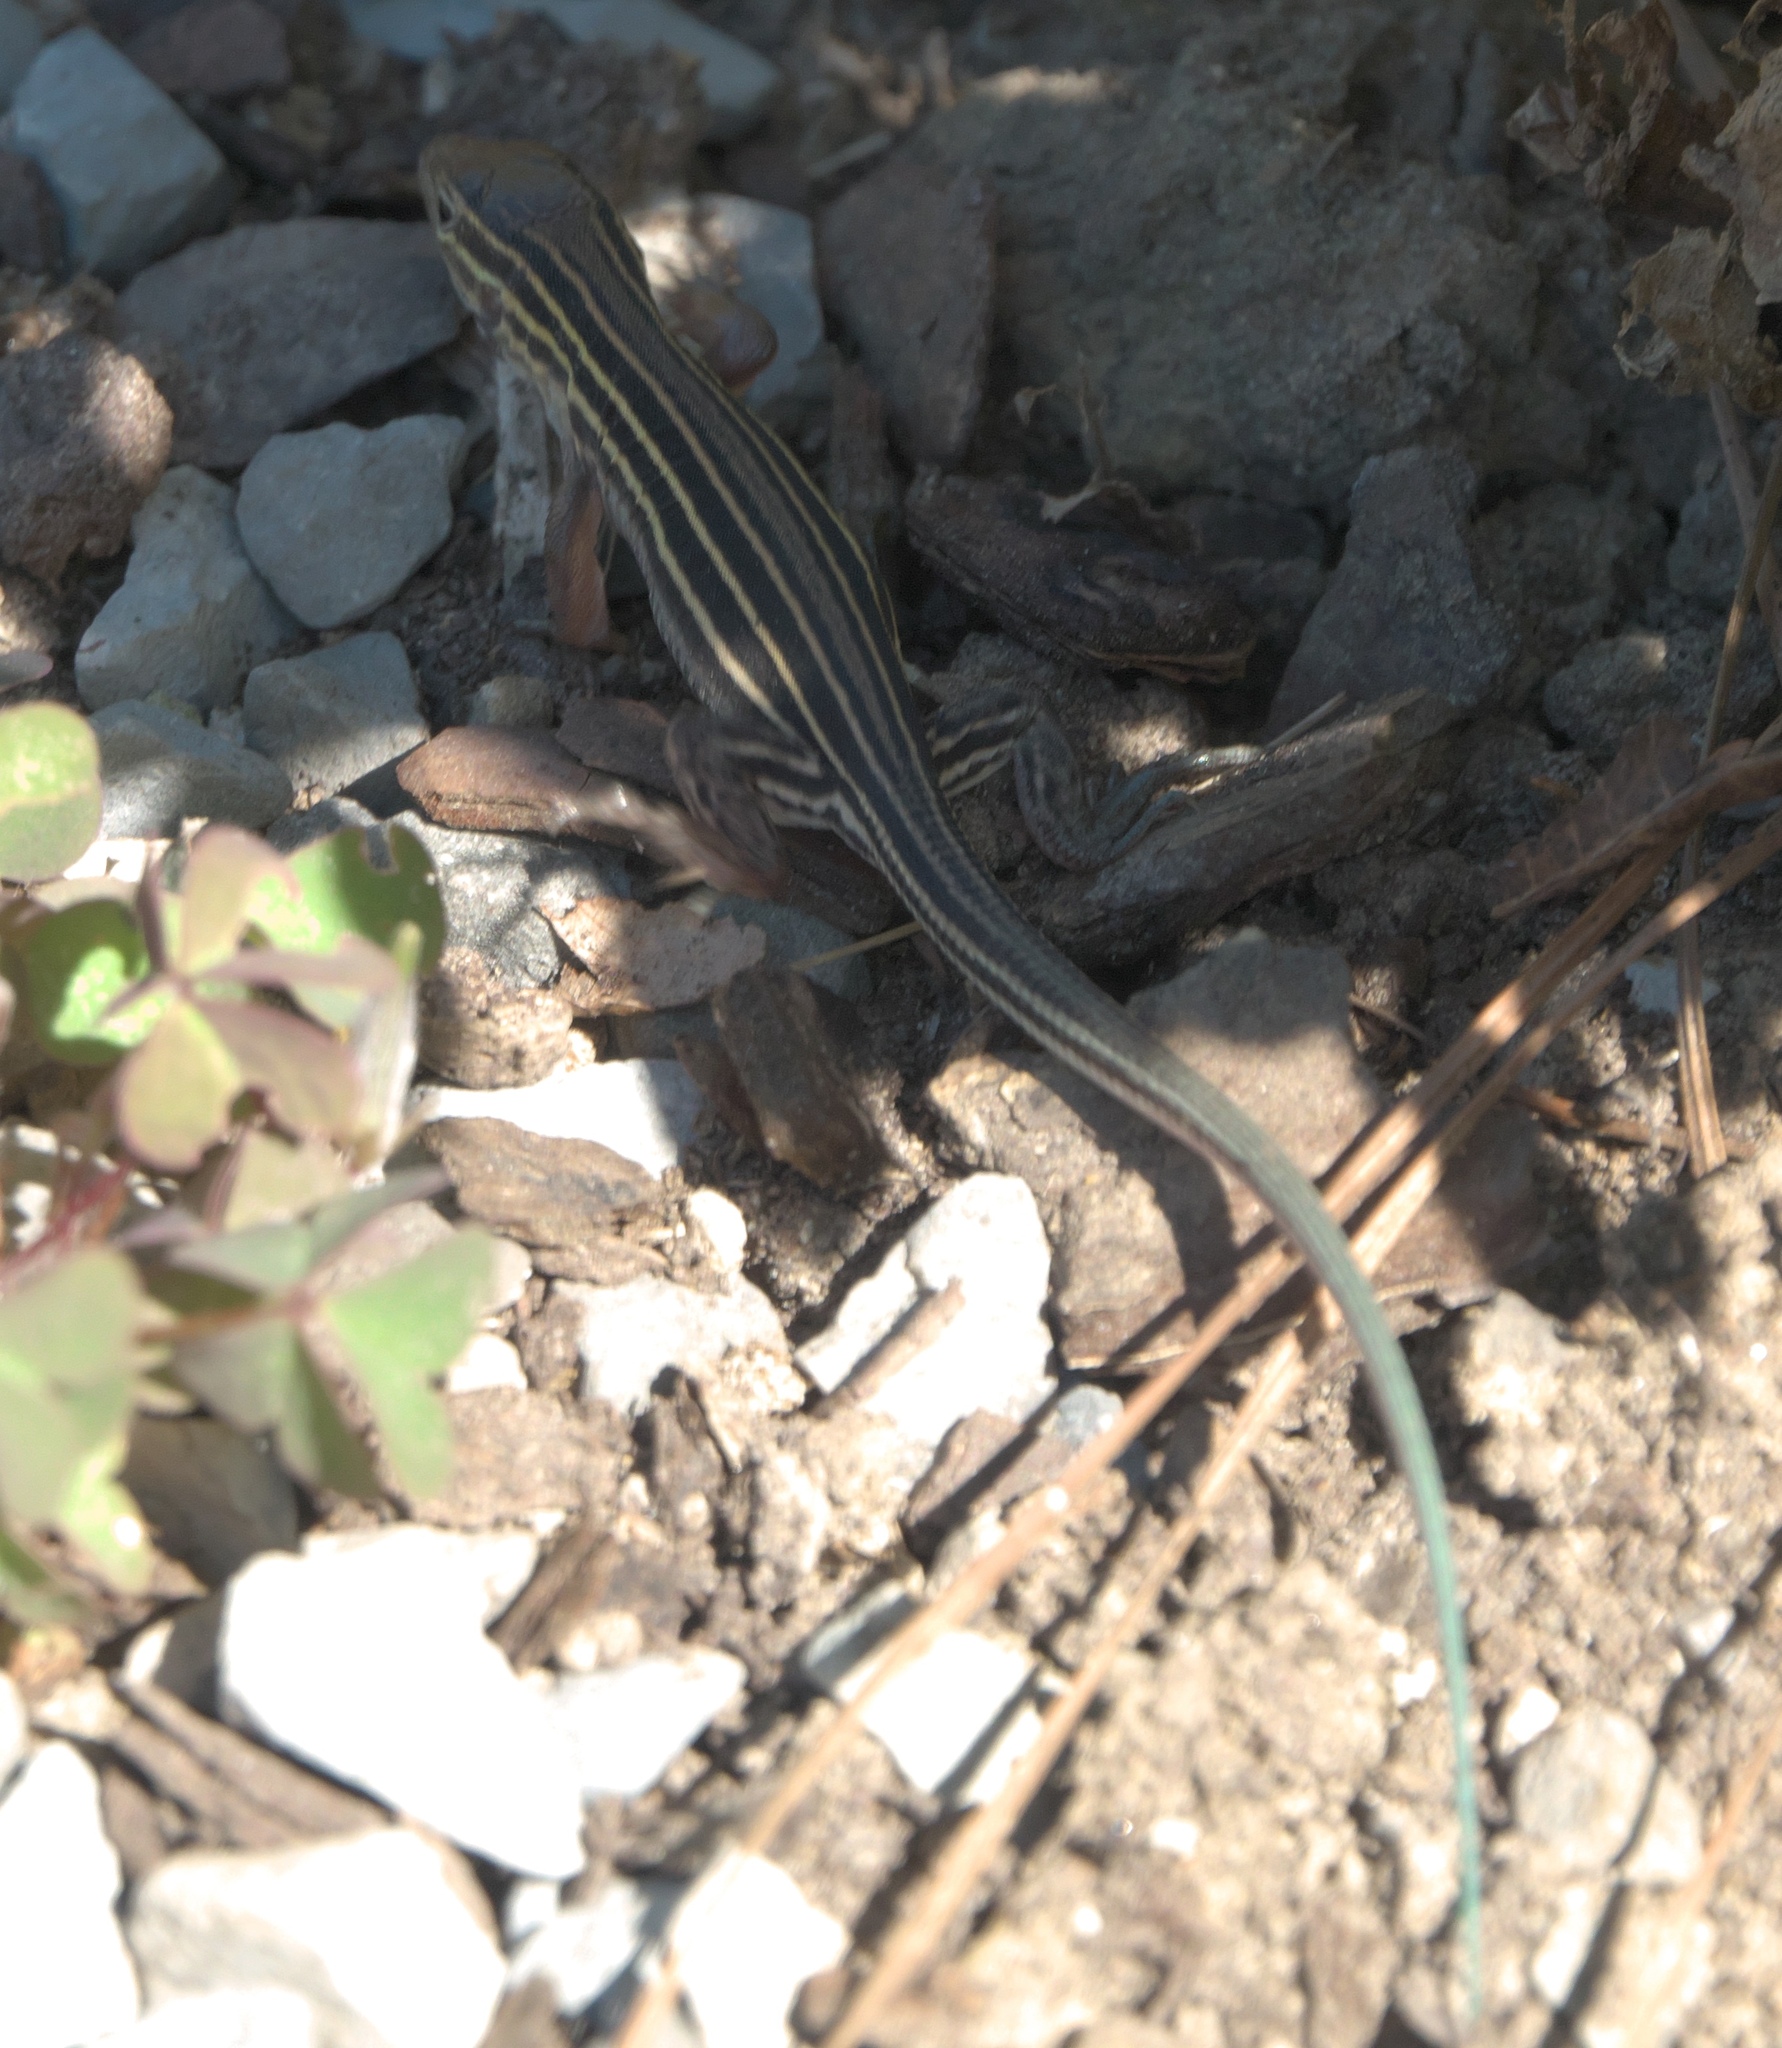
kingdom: Animalia
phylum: Chordata
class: Squamata
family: Teiidae
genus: Aspidoscelis
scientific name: Aspidoscelis sexlineatus
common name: Six-lined racerunner
